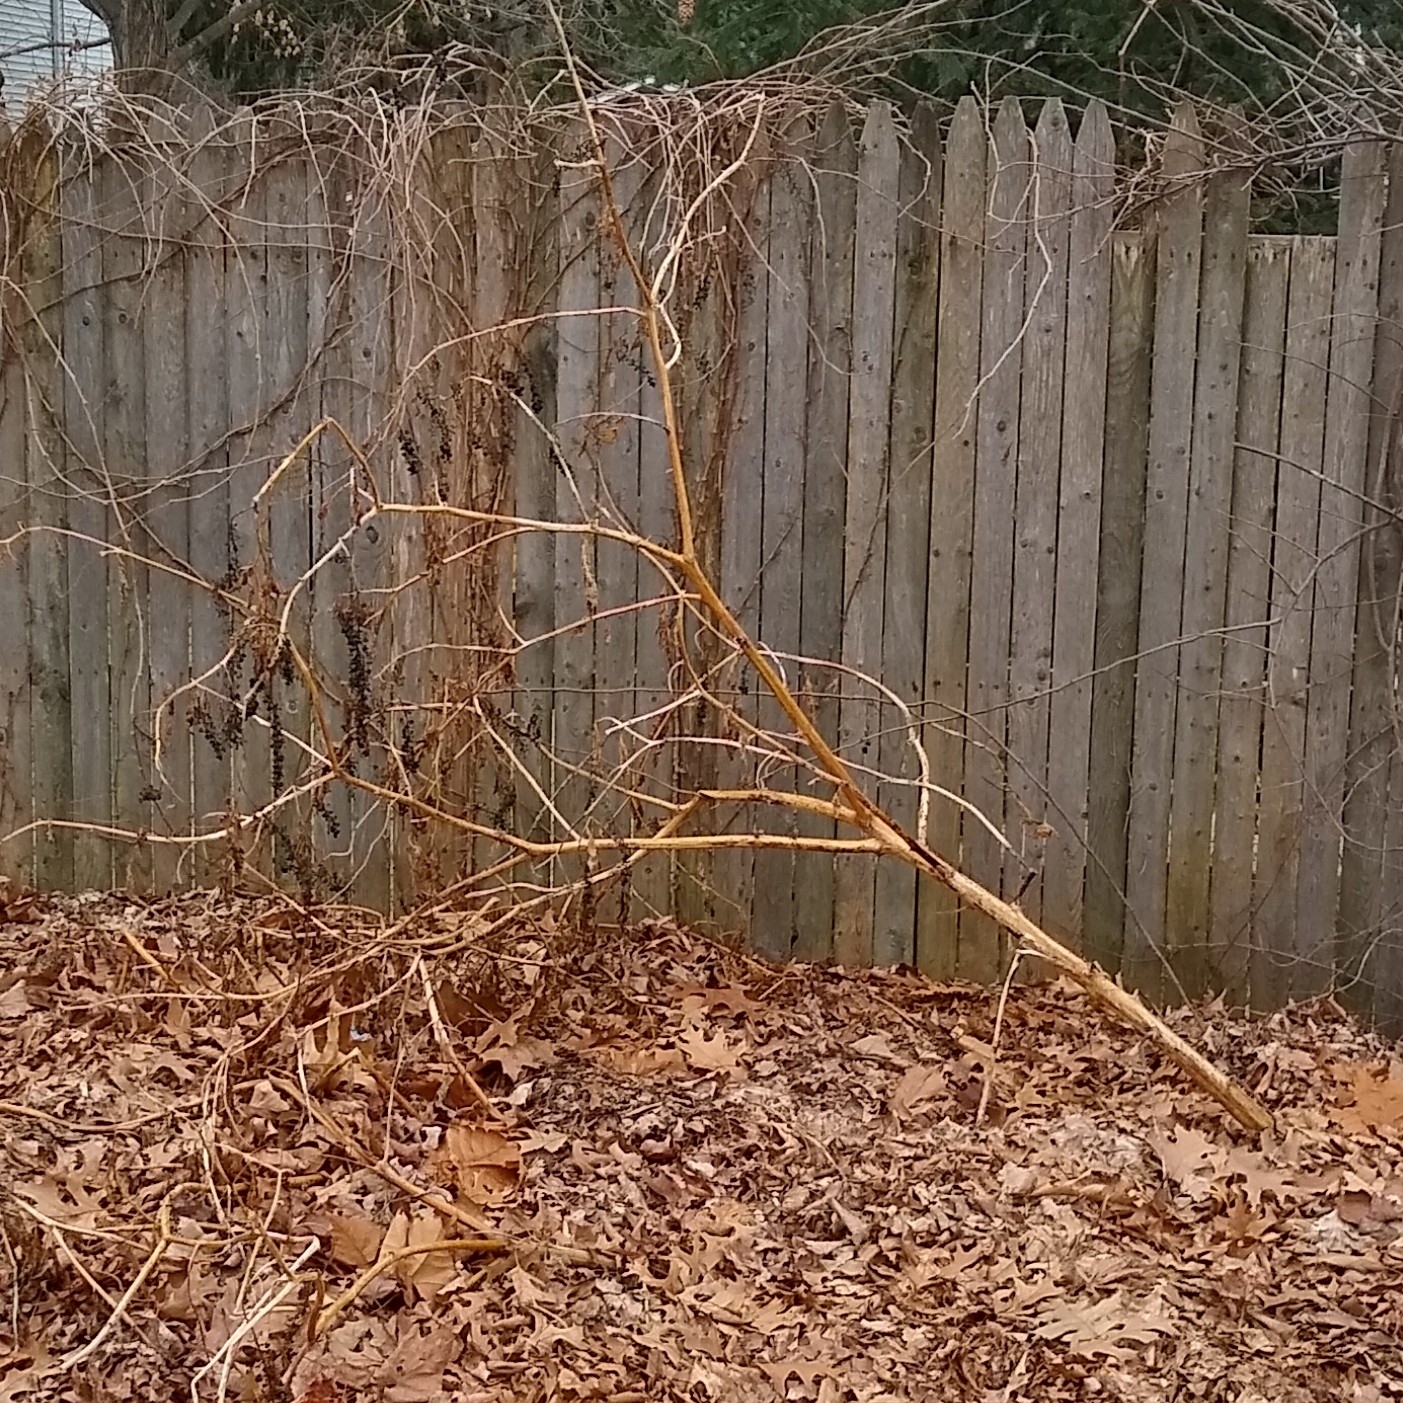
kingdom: Plantae
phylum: Tracheophyta
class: Magnoliopsida
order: Caryophyllales
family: Phytolaccaceae
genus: Phytolacca
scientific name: Phytolacca americana
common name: American pokeweed
